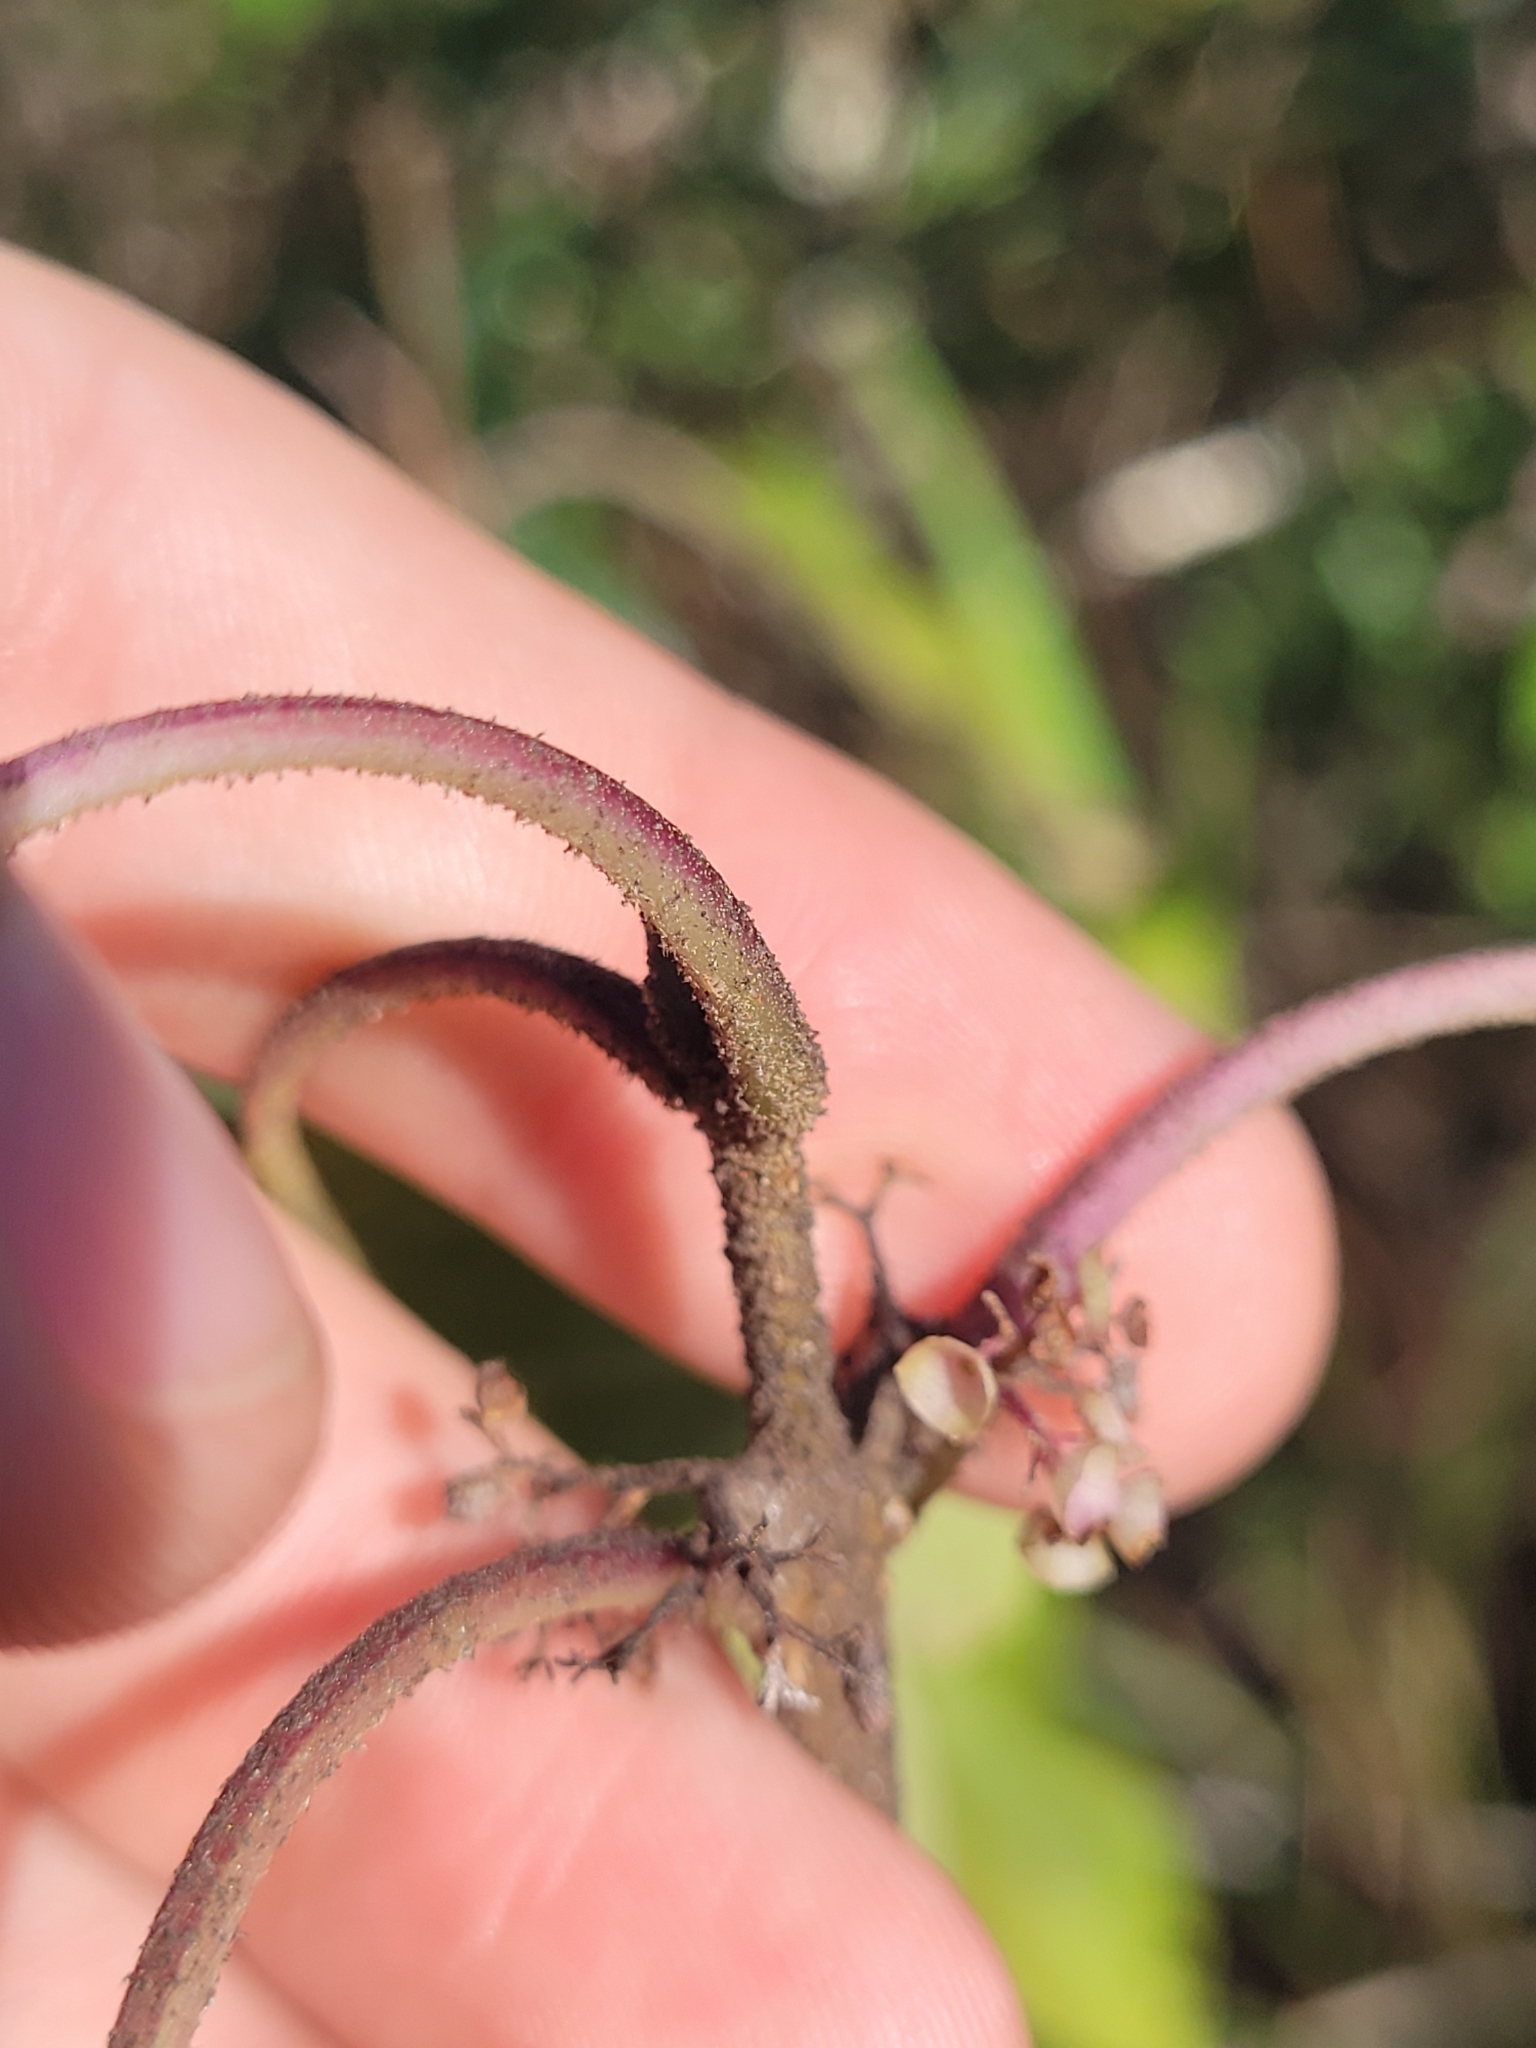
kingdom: Plantae
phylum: Tracheophyta
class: Magnoliopsida
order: Lamiales
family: Lamiaceae
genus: Callicarpa
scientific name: Callicarpa americana
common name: American beautyberry
